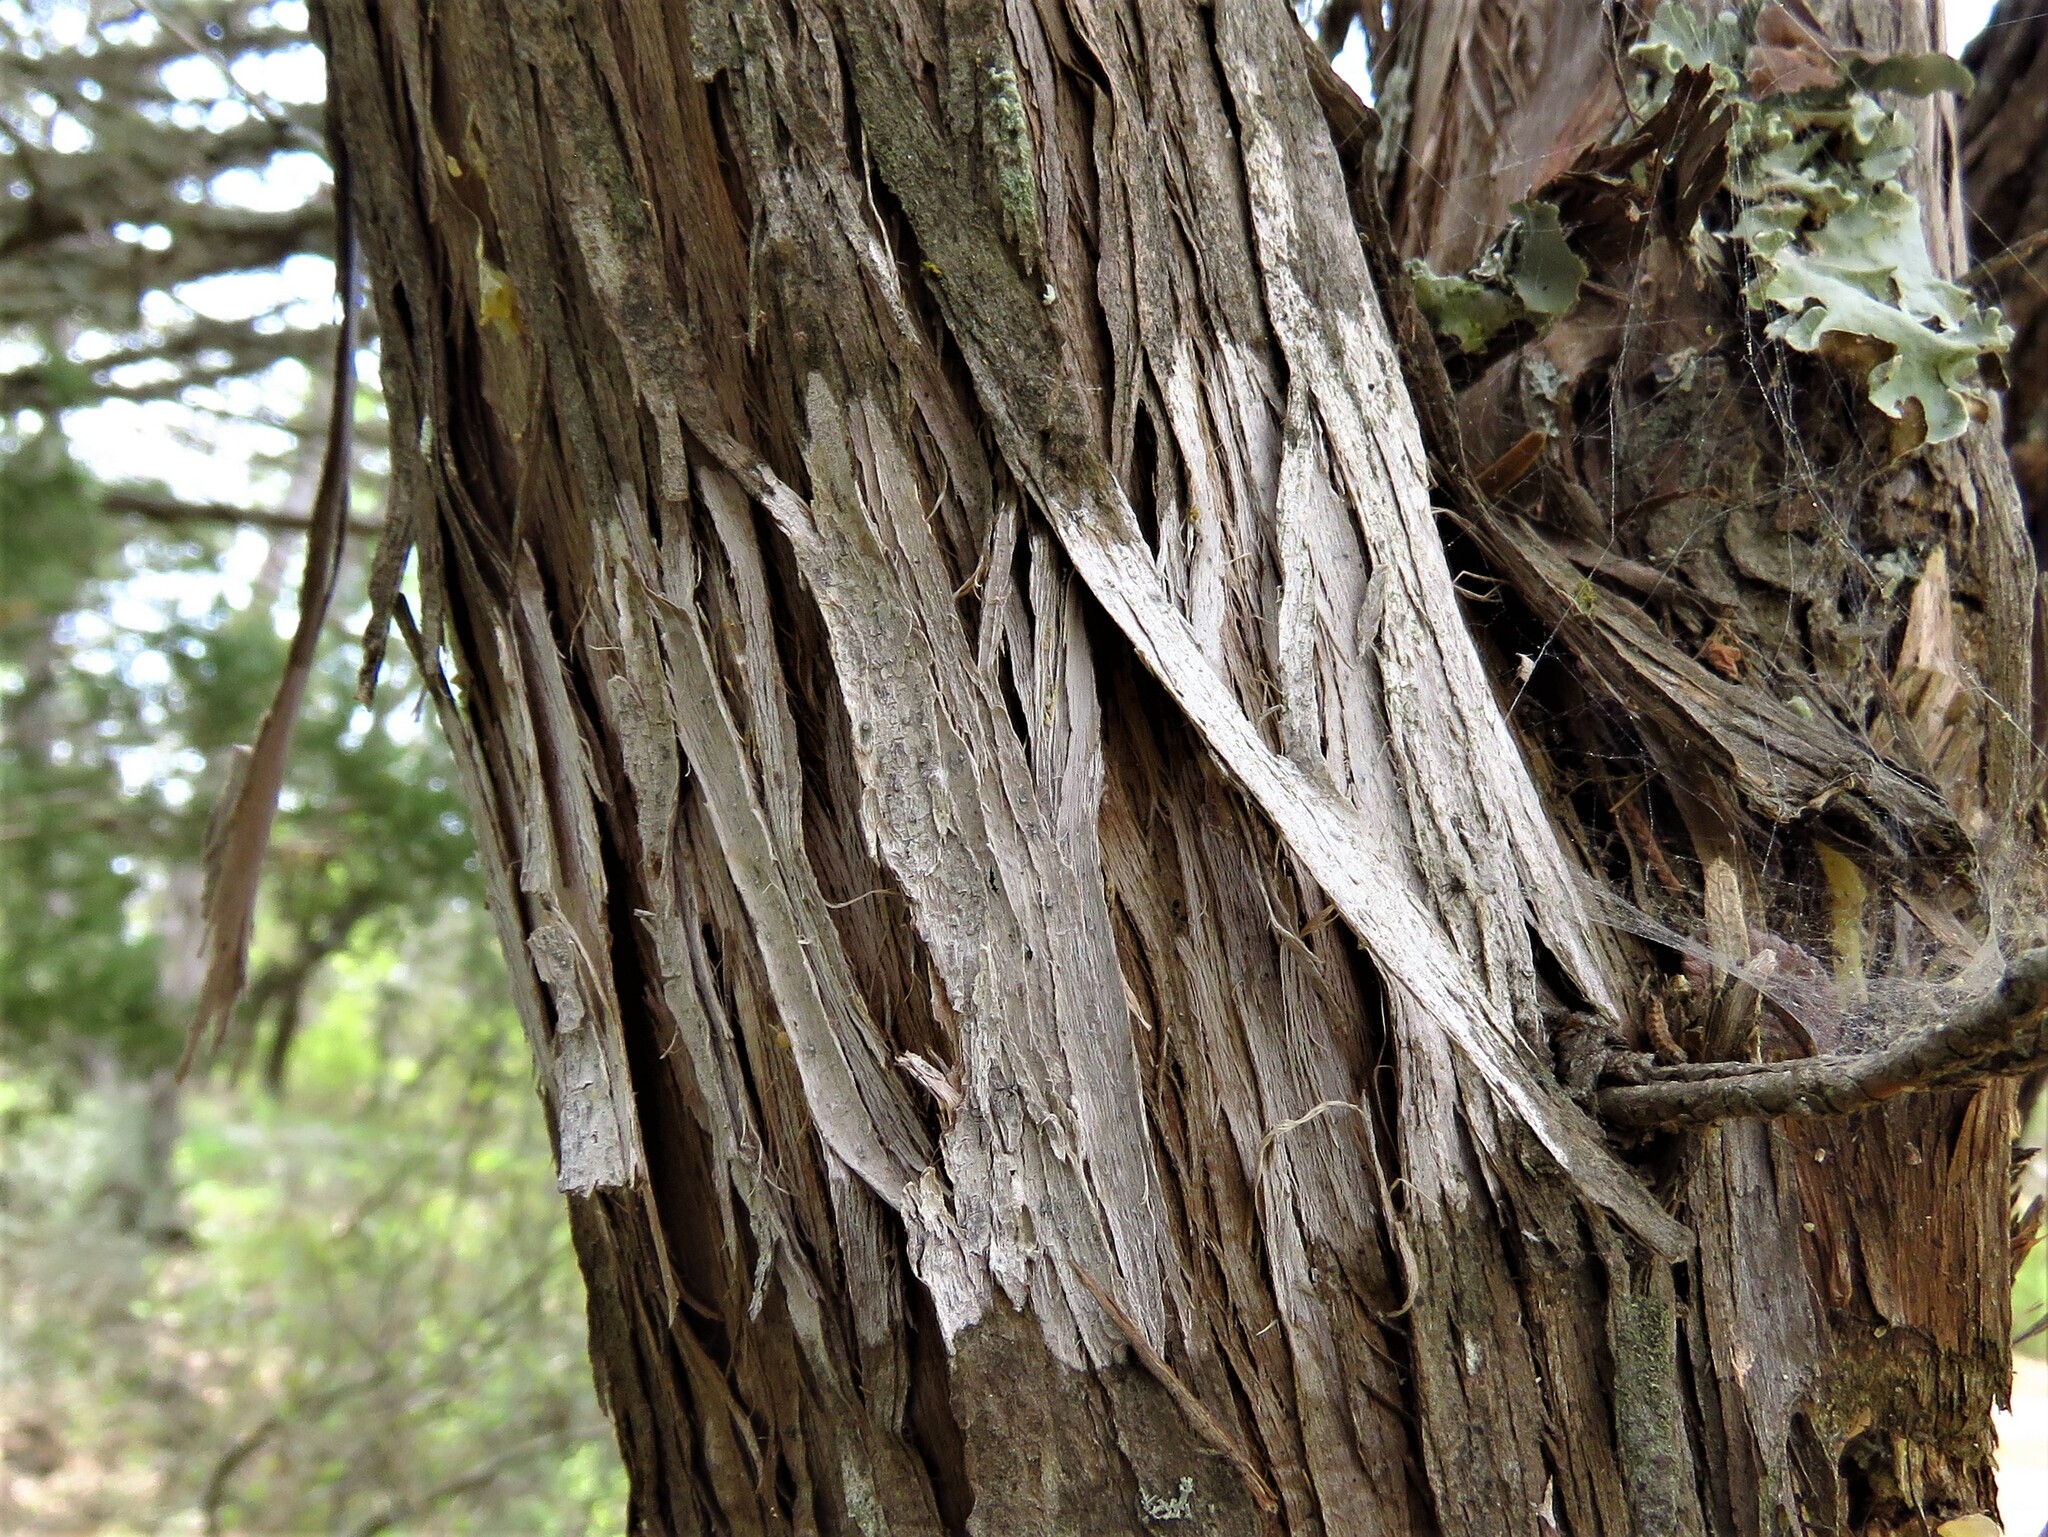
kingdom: Fungi
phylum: Ascomycota
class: Lecanoromycetes
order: Ostropales
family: Stictidaceae
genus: Robergea
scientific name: Robergea
